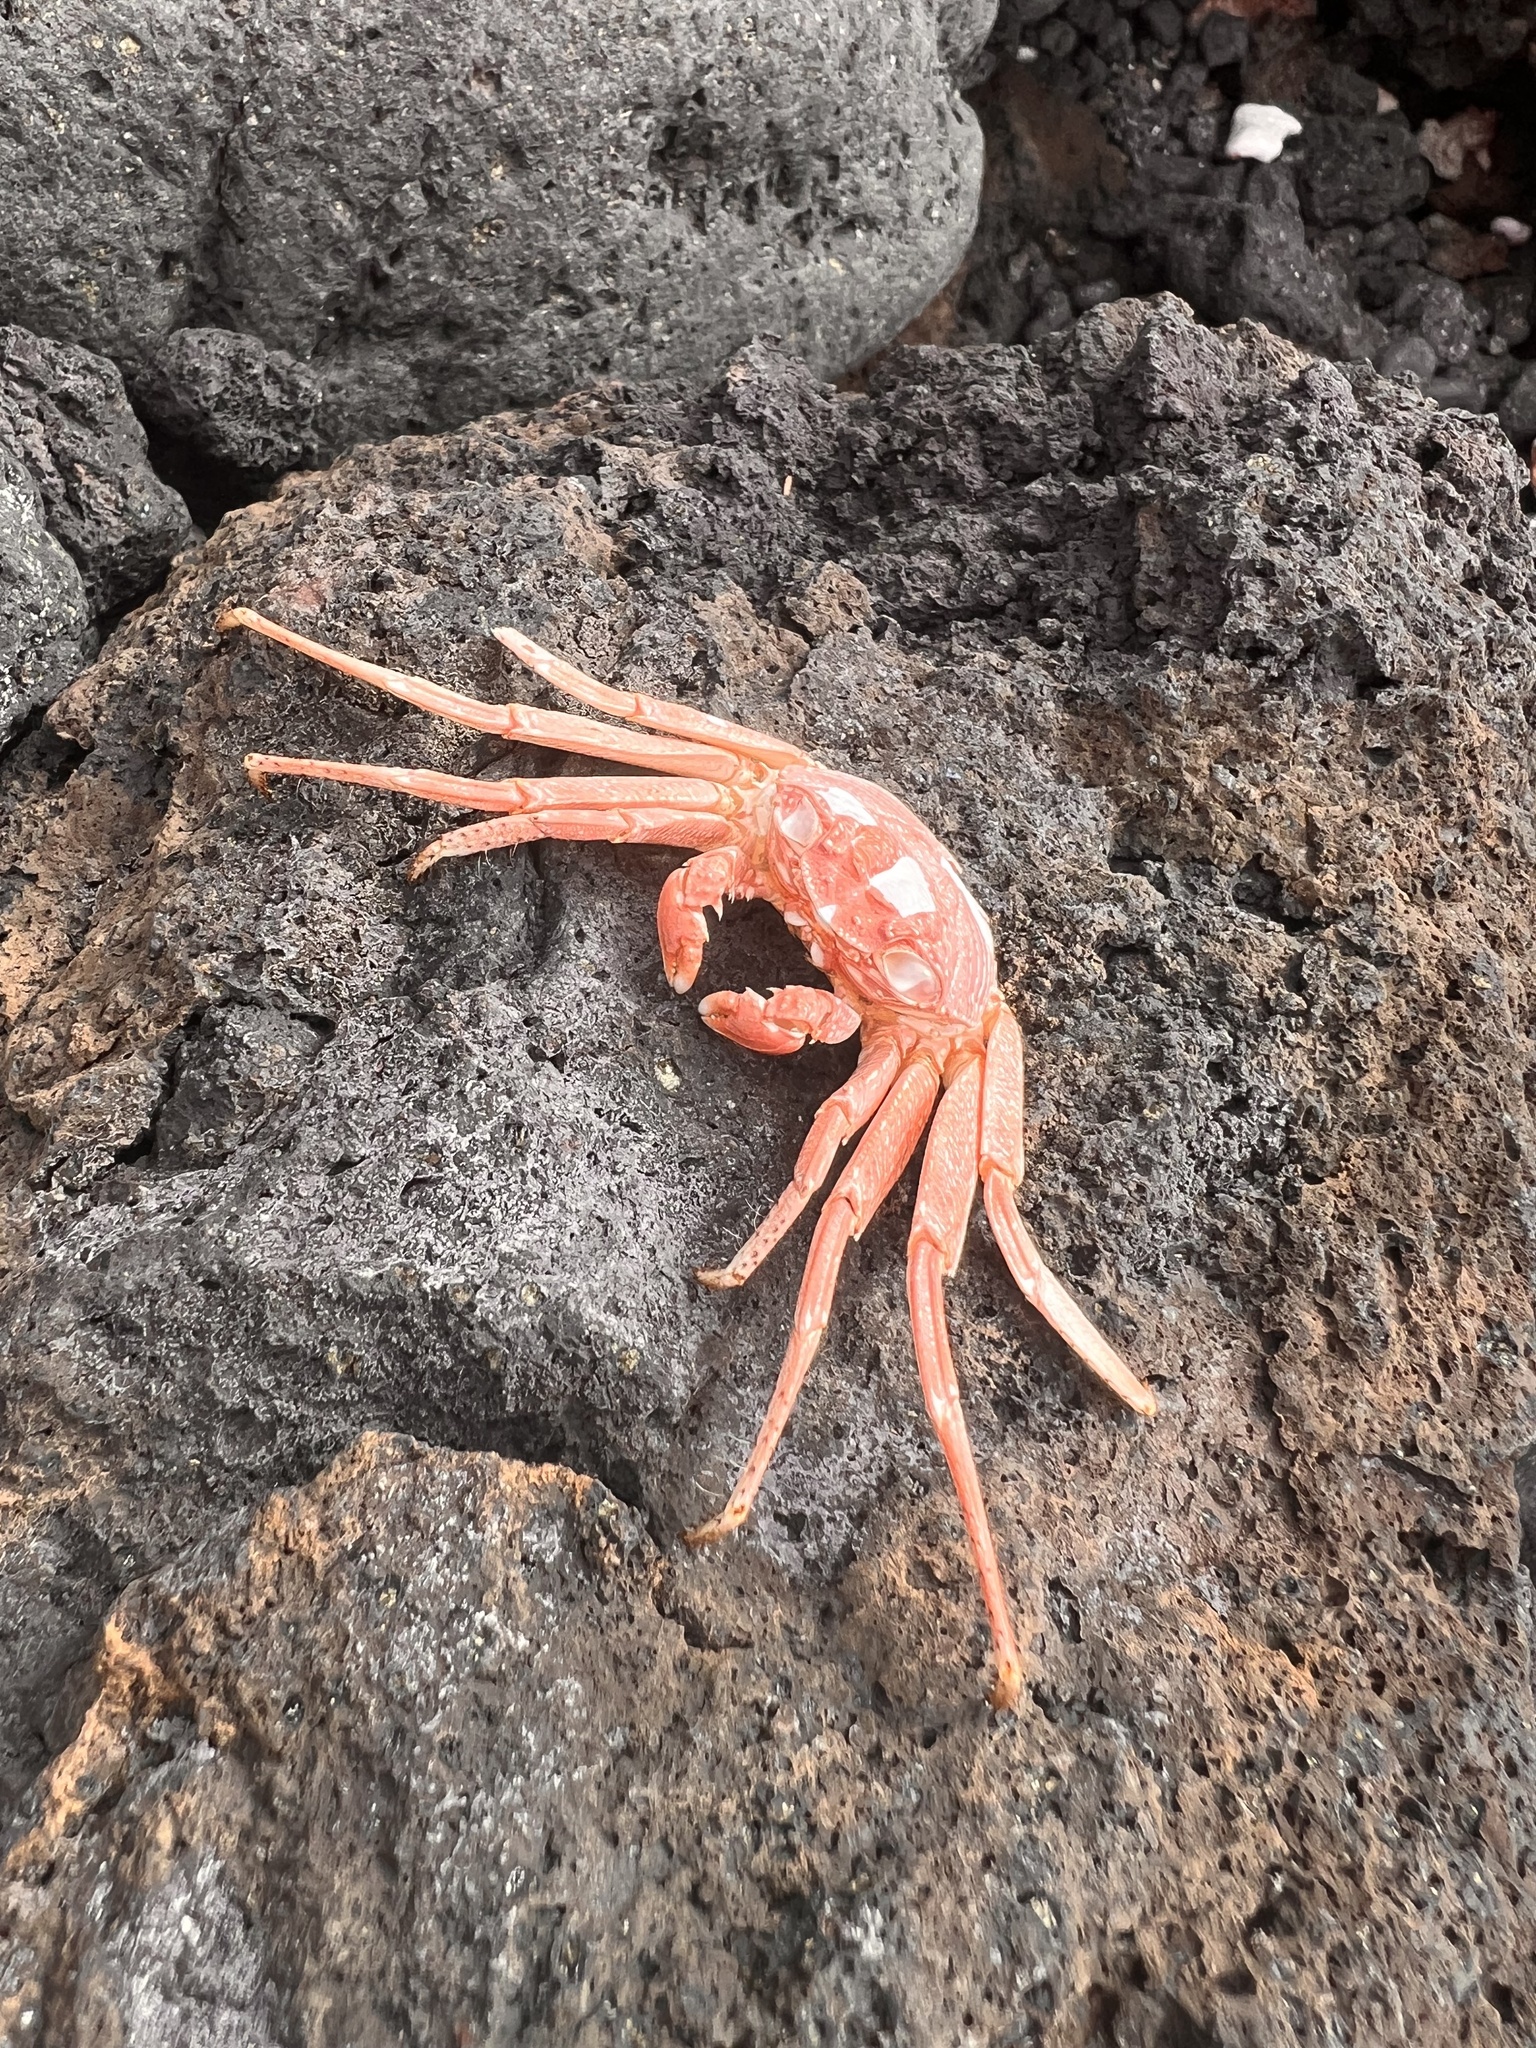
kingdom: Animalia
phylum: Arthropoda
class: Malacostraca
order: Decapoda
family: Grapsidae
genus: Grapsus
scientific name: Grapsus tenuicrustatus
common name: Natal lightfoot crab
